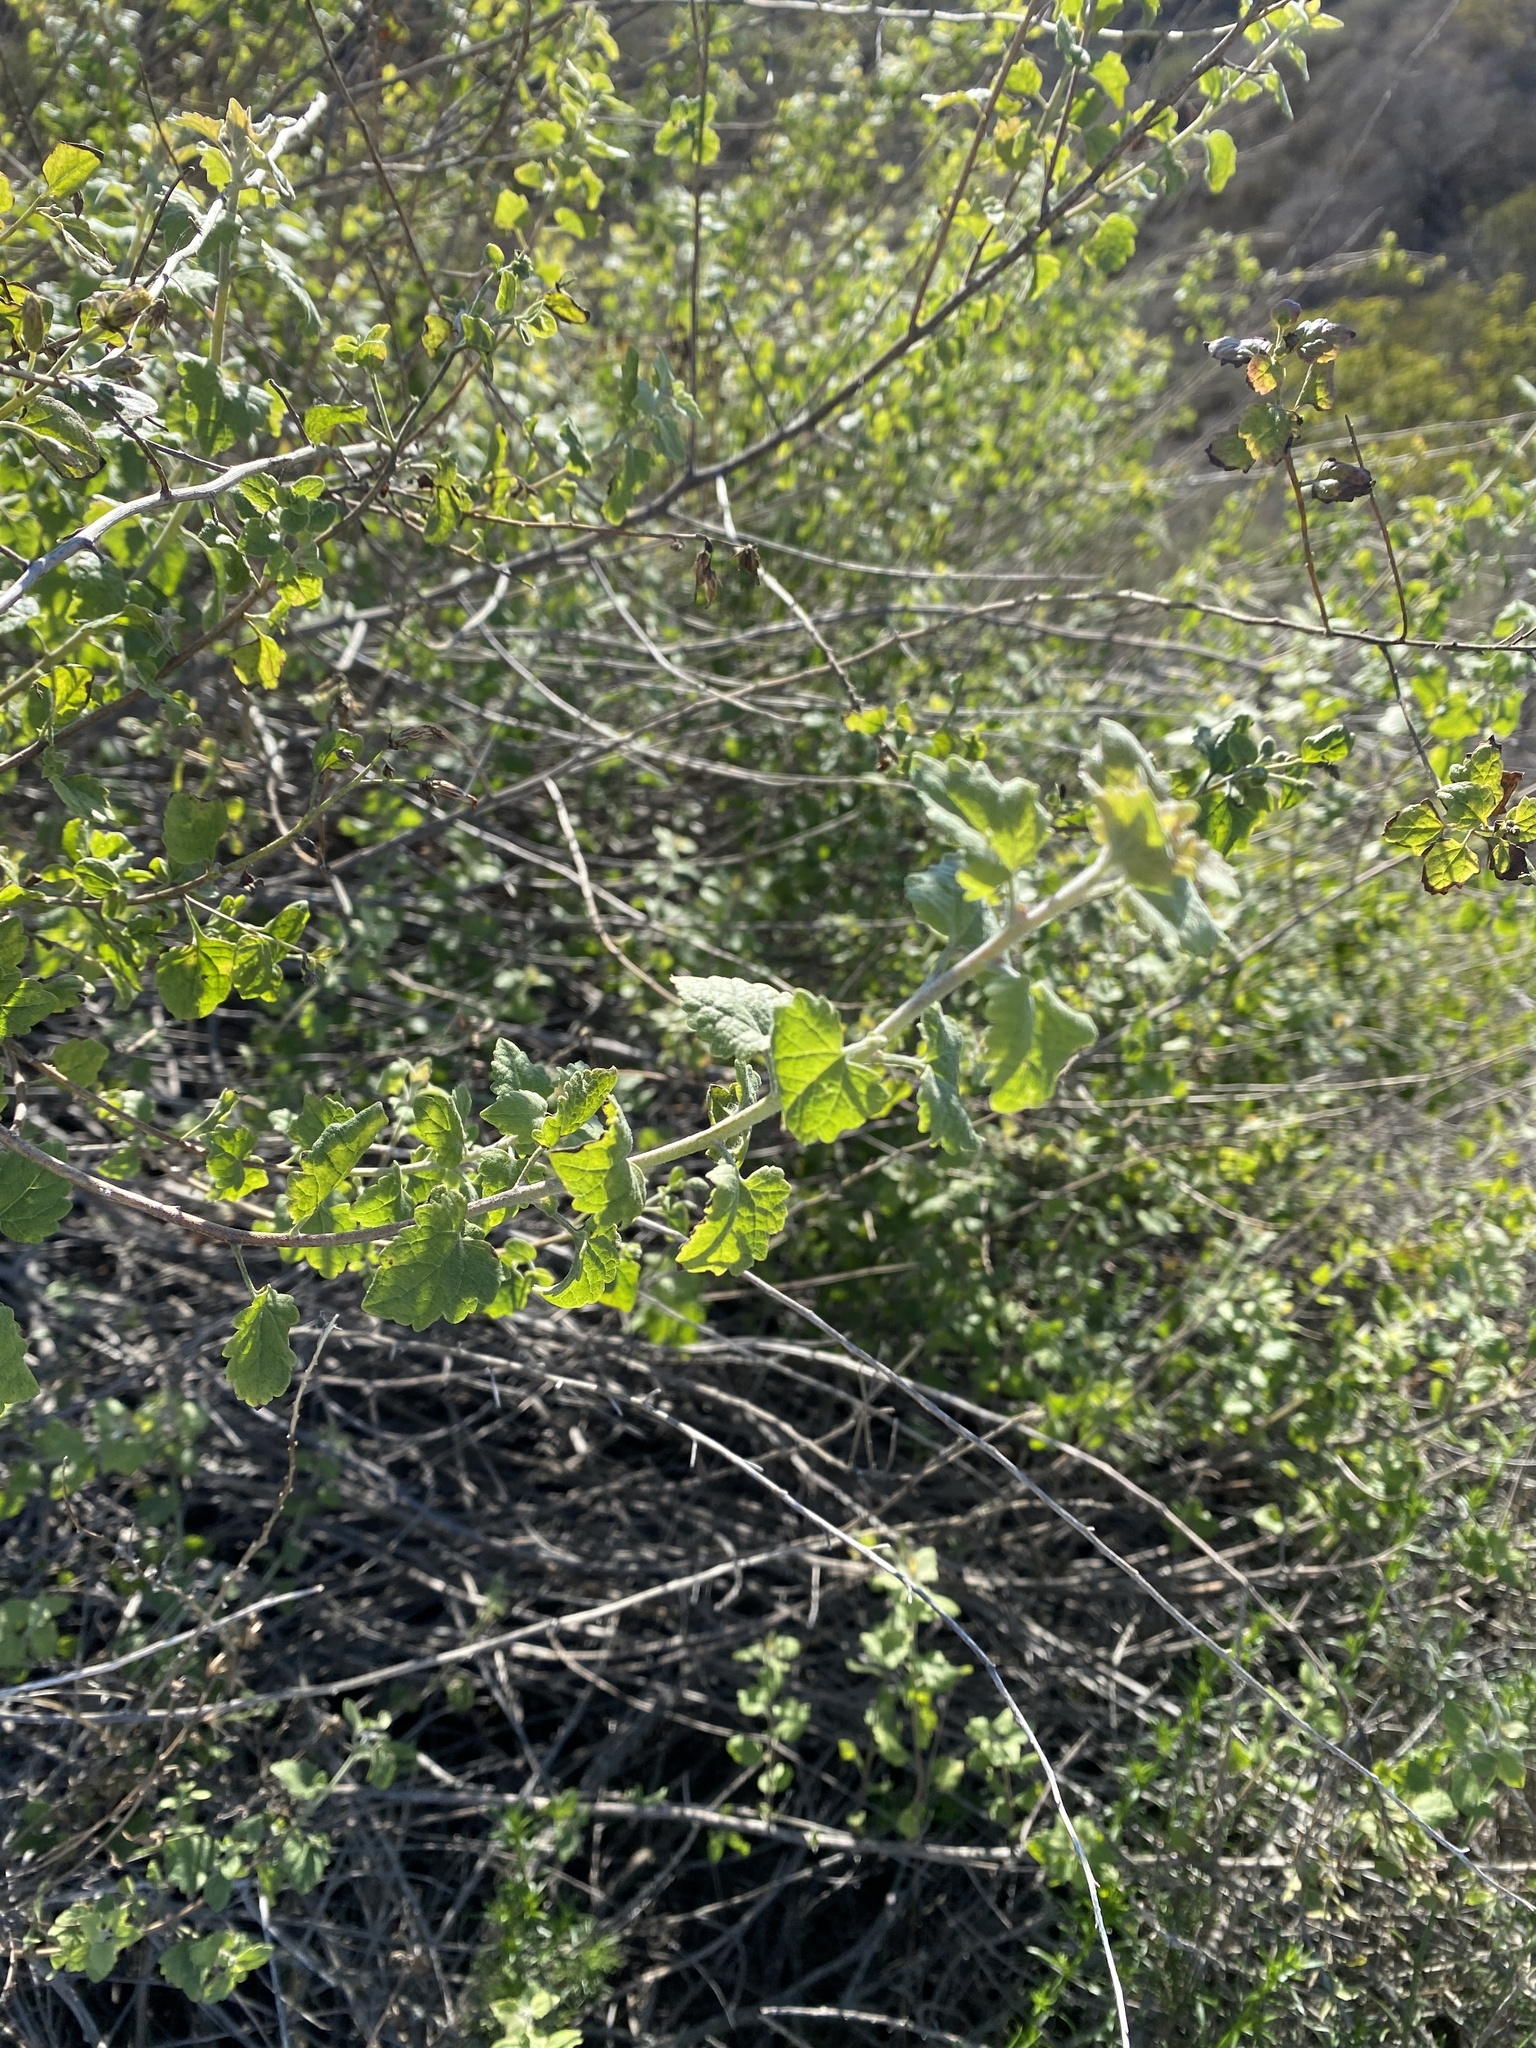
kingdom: Plantae
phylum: Tracheophyta
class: Magnoliopsida
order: Asterales
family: Asteraceae
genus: Brickellia
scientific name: Brickellia californica
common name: California brickellbush
